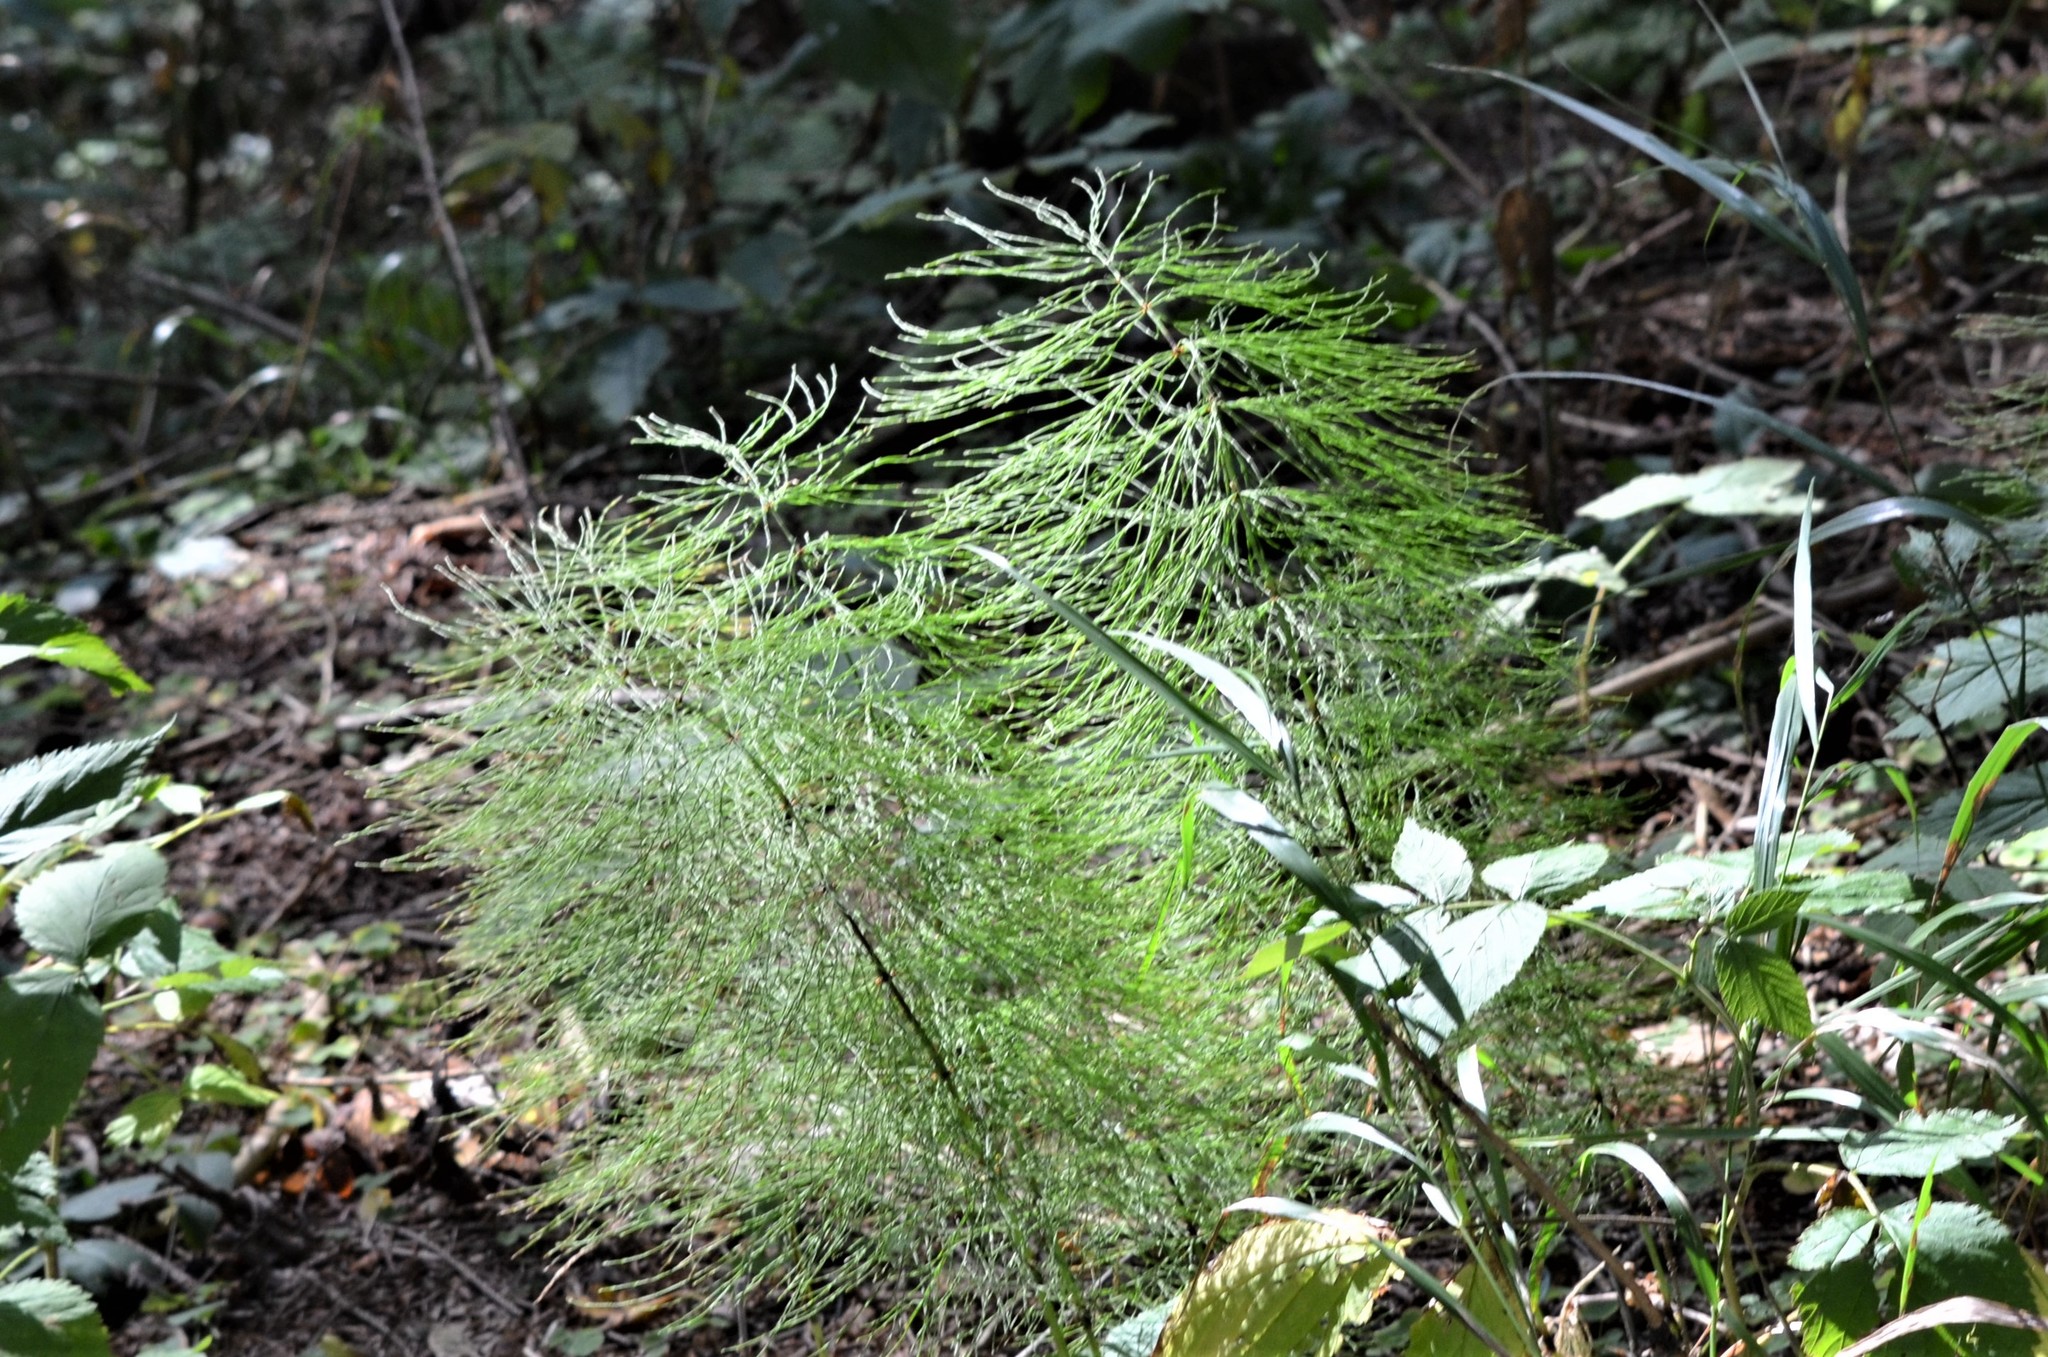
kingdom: Plantae
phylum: Tracheophyta
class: Polypodiopsida
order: Equisetales
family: Equisetaceae
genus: Equisetum
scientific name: Equisetum sylvaticum
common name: Wood horsetail
